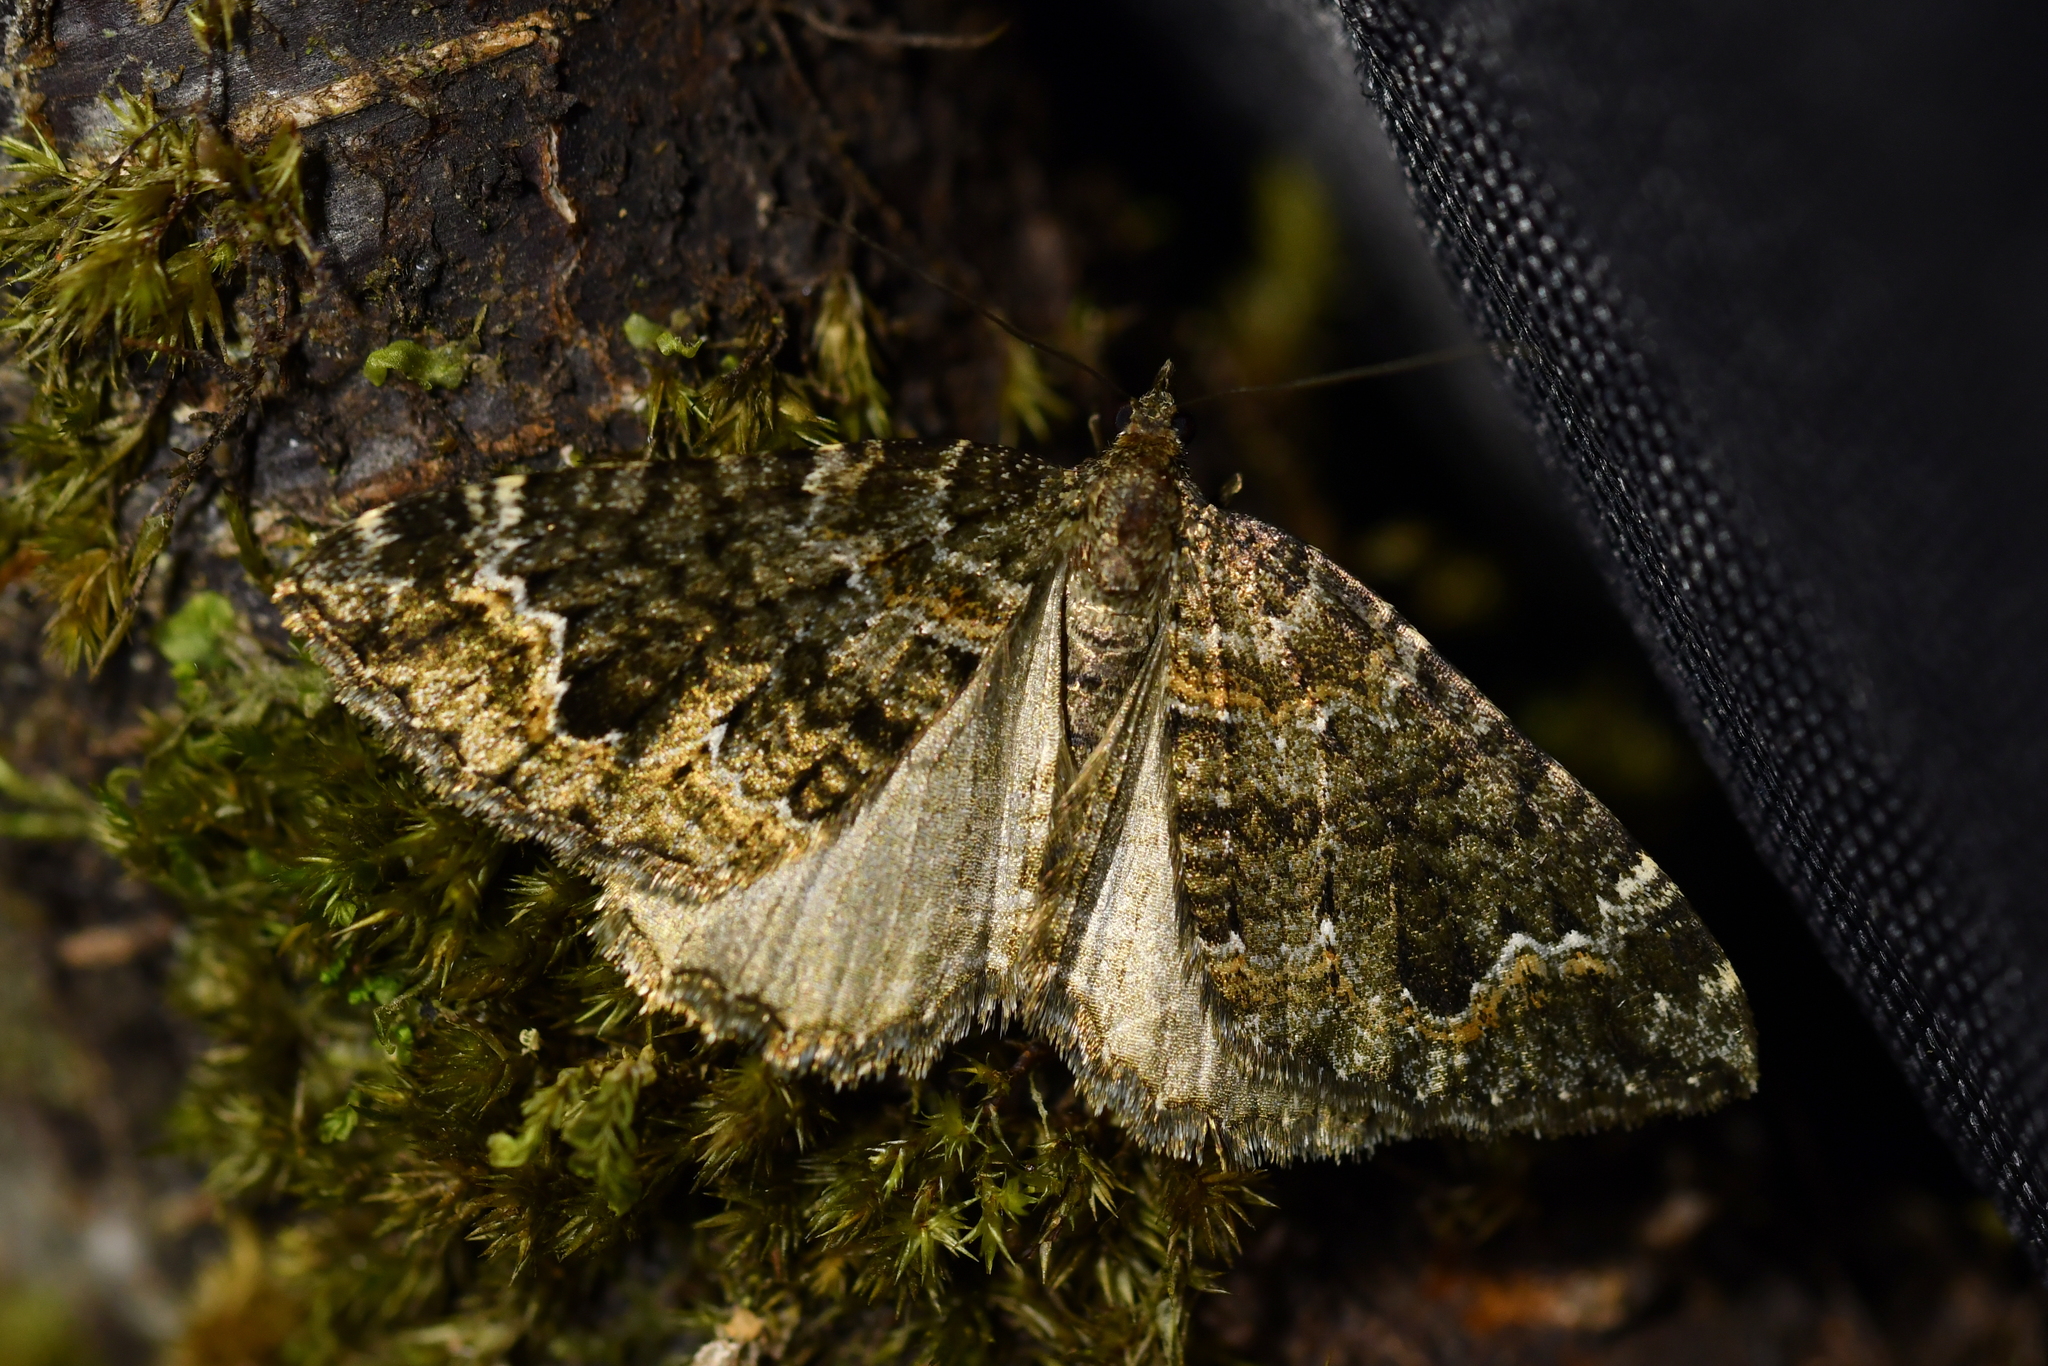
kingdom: Animalia
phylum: Arthropoda
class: Insecta
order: Lepidoptera
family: Geometridae
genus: Hydriomena
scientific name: Hydriomena hemizona
